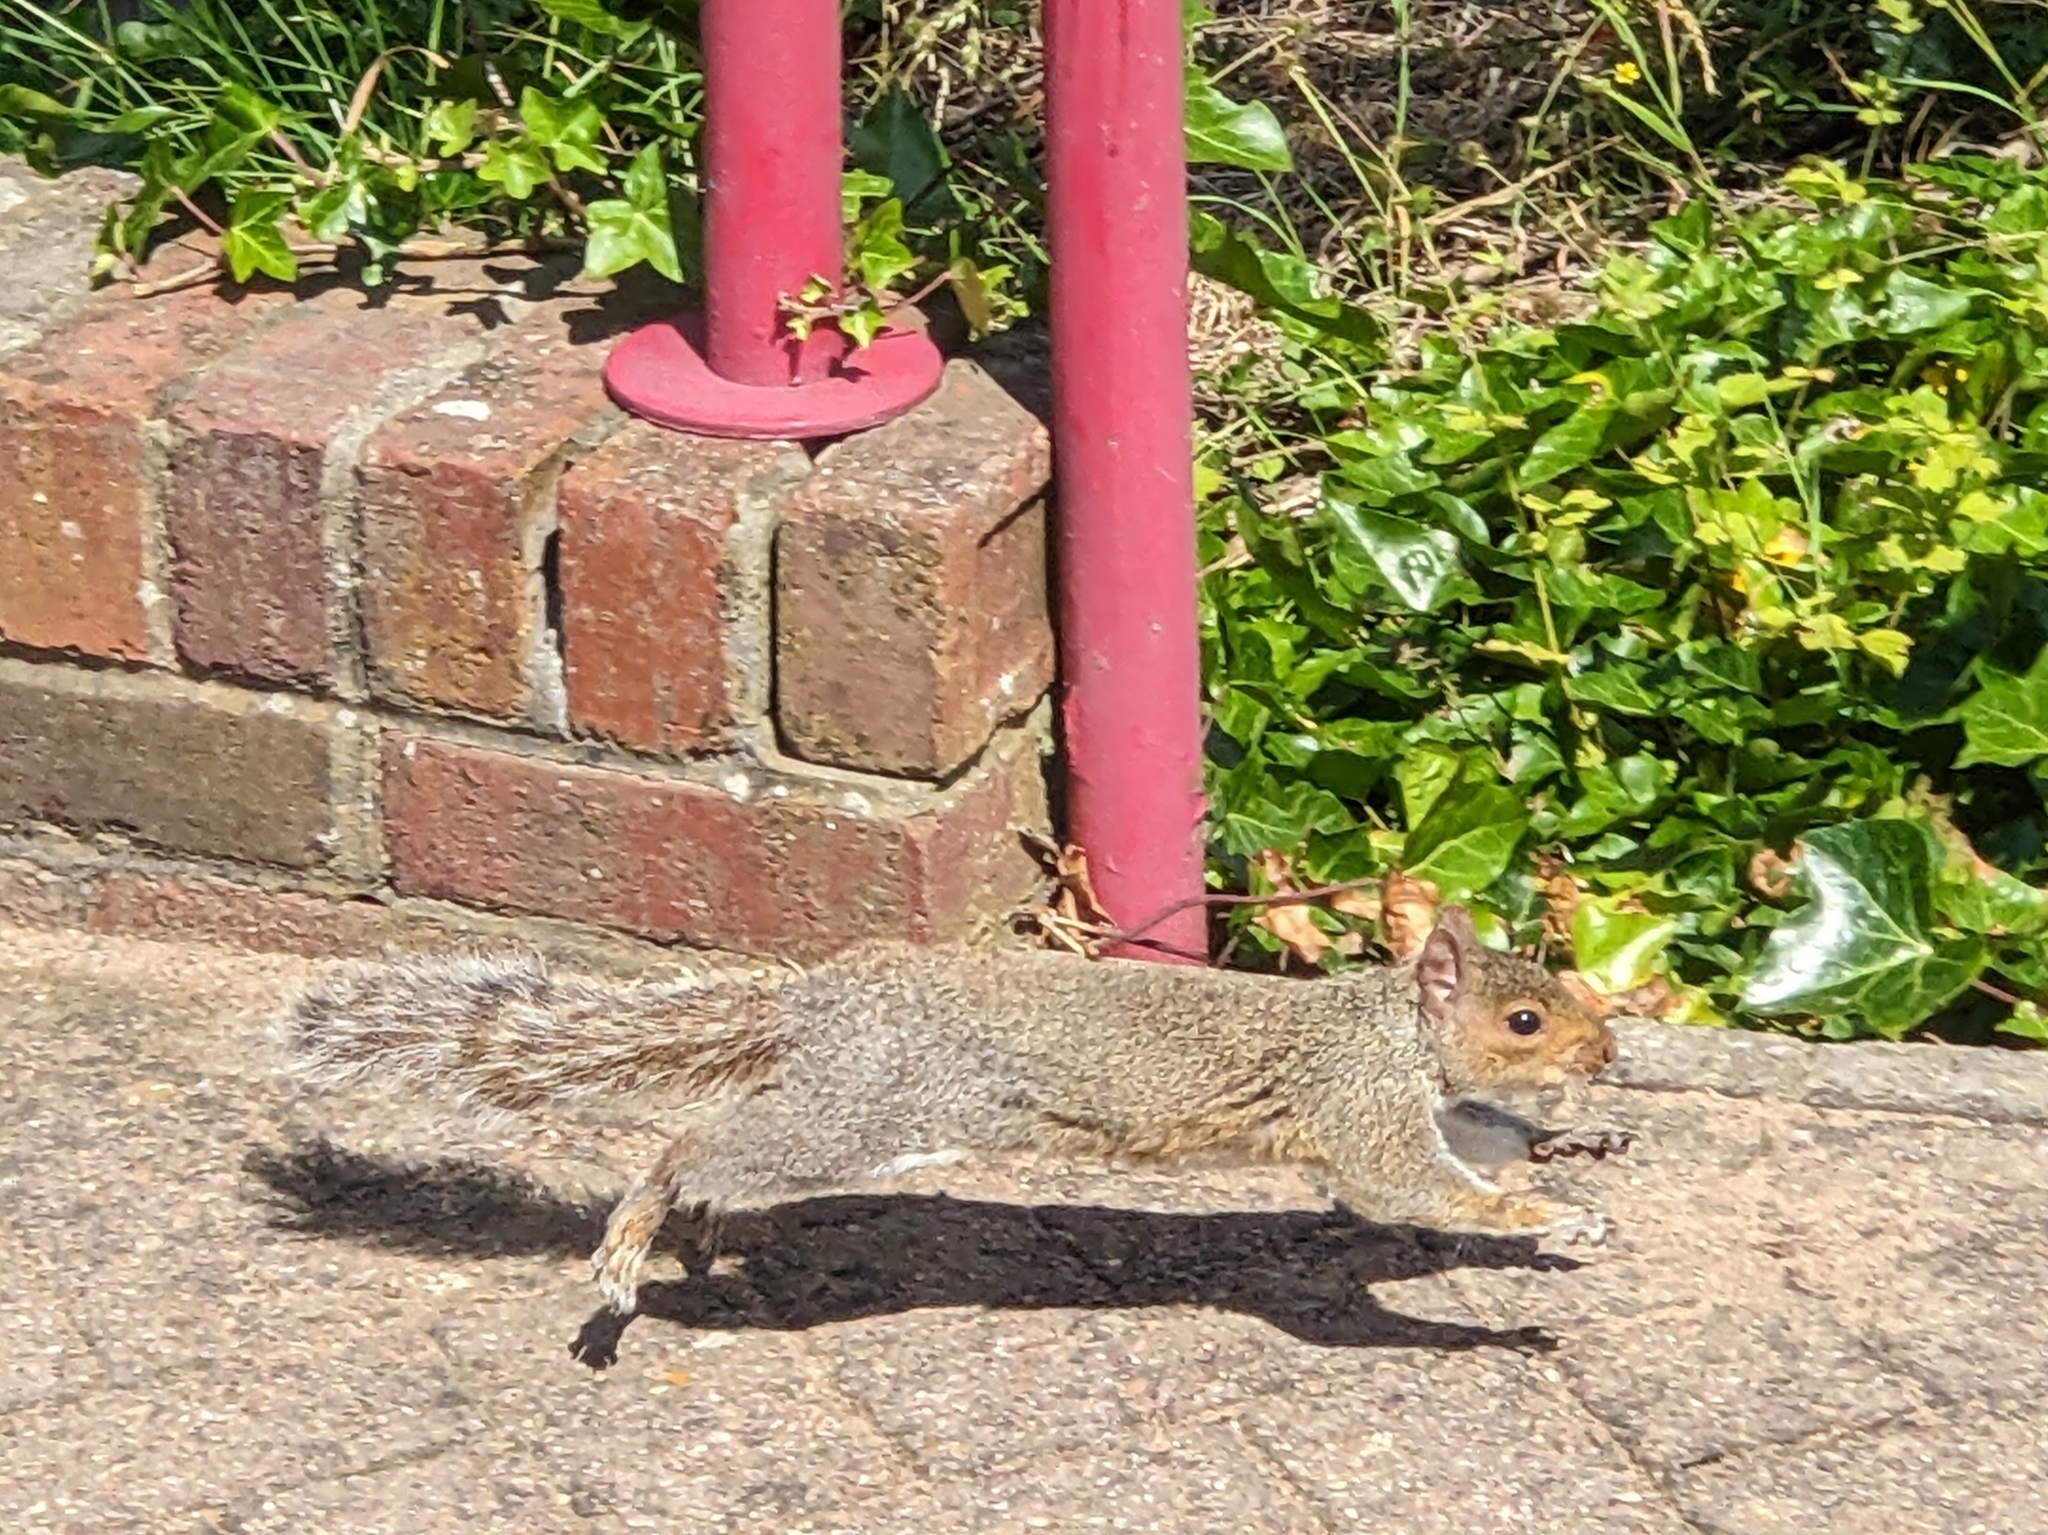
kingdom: Animalia
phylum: Chordata
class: Mammalia
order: Rodentia
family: Sciuridae
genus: Sciurus
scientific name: Sciurus carolinensis
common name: Eastern gray squirrel
